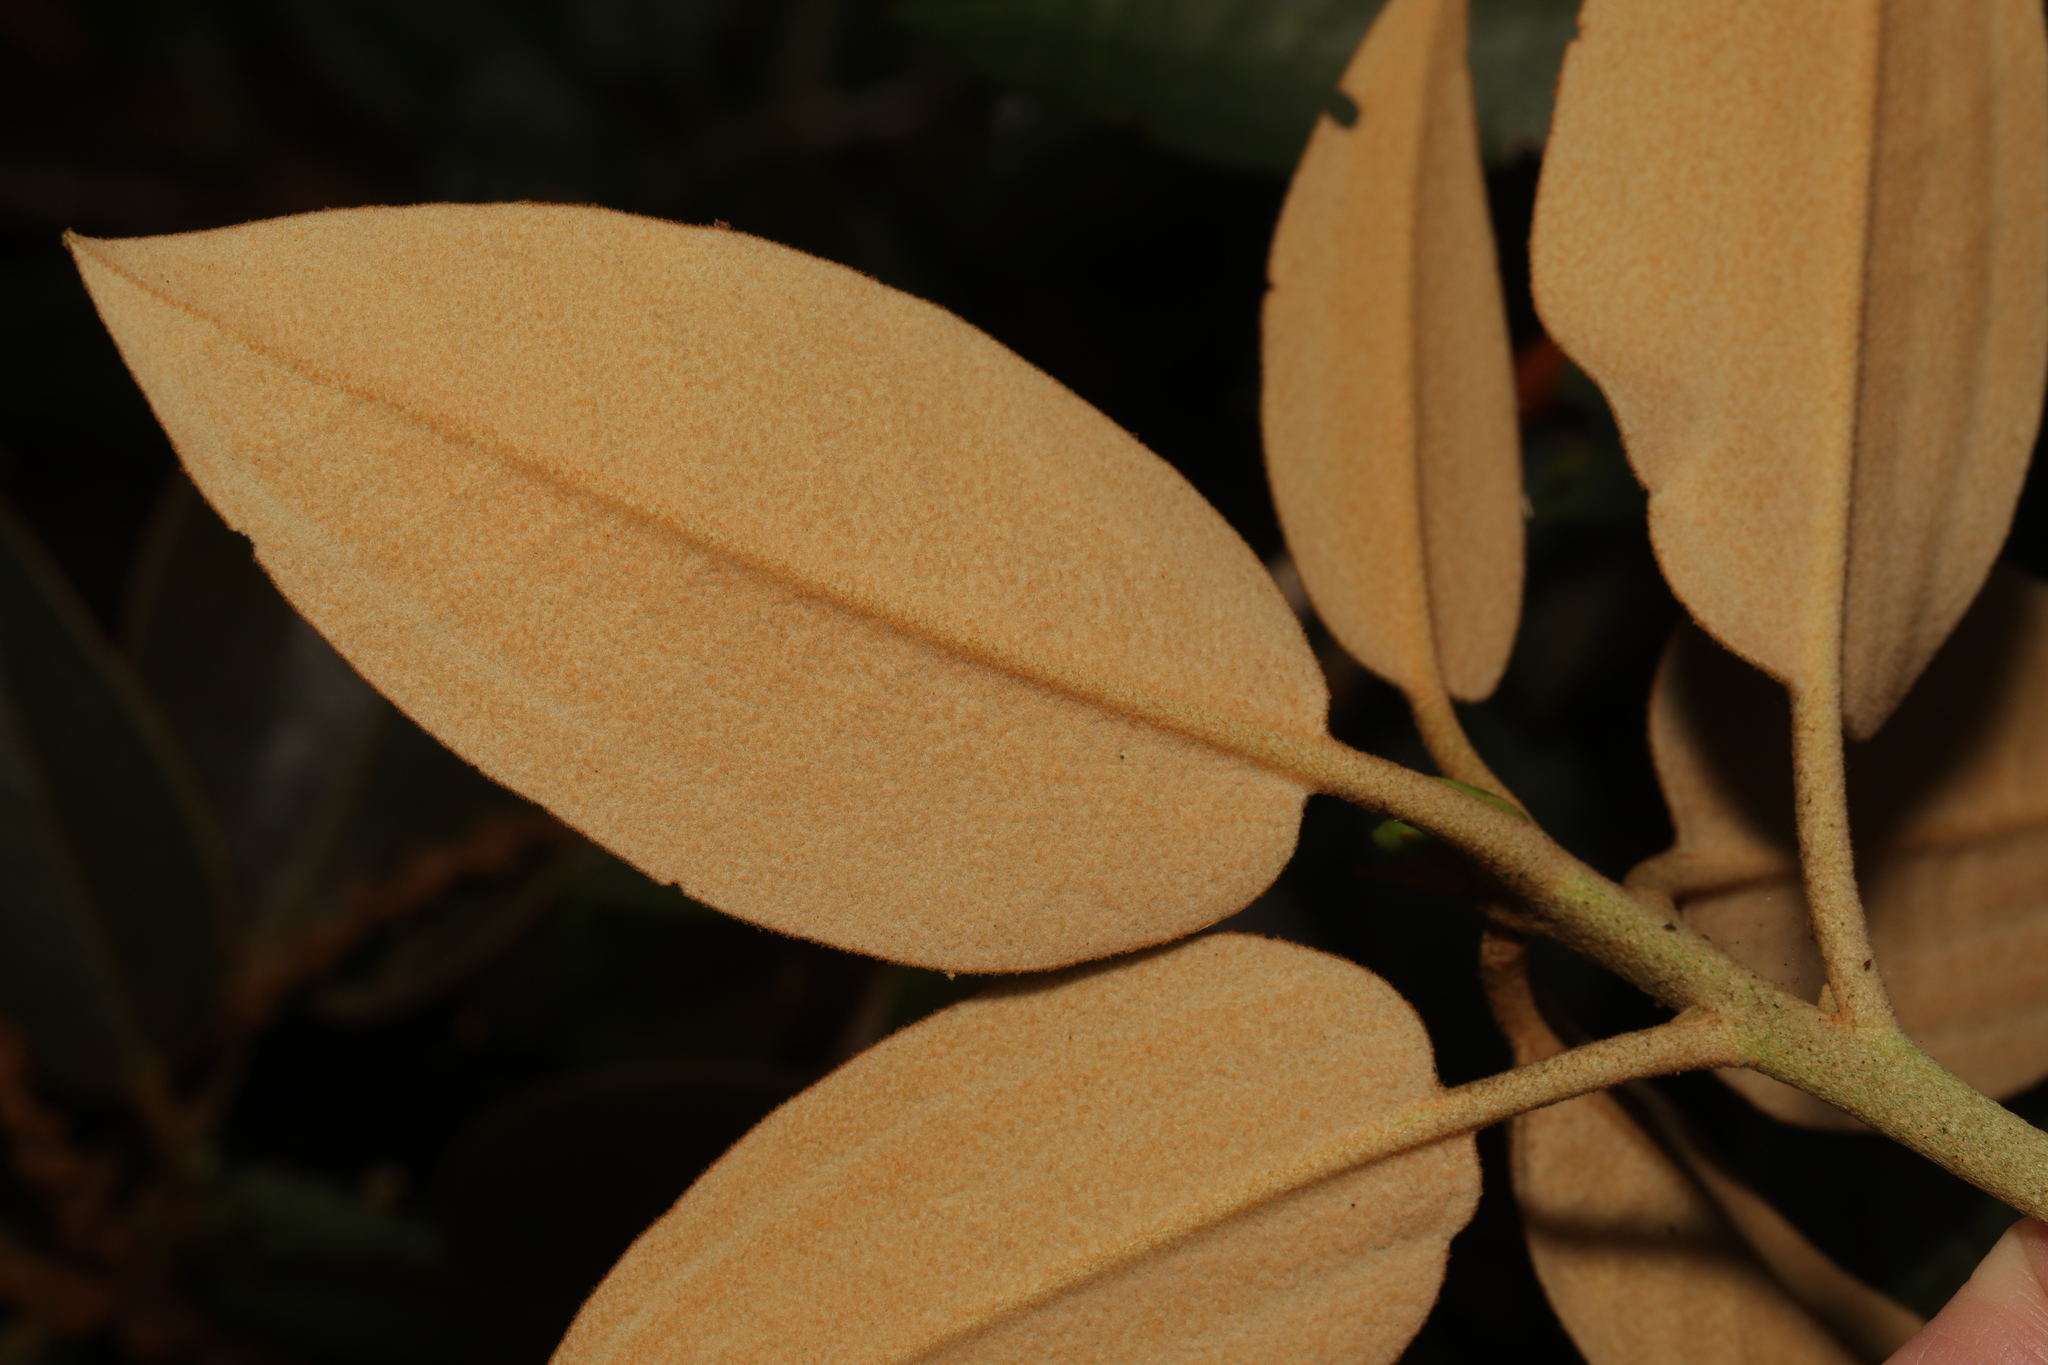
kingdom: Plantae
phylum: Tracheophyta
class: Magnoliopsida
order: Ericales
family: Ericaceae
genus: Rhododendron
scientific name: Rhododendron
